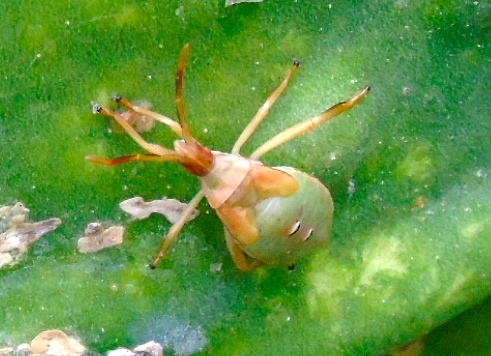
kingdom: Animalia
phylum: Arthropoda
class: Insecta
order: Hemiptera
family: Coreidae
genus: Chelinidea
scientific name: Chelinidea
